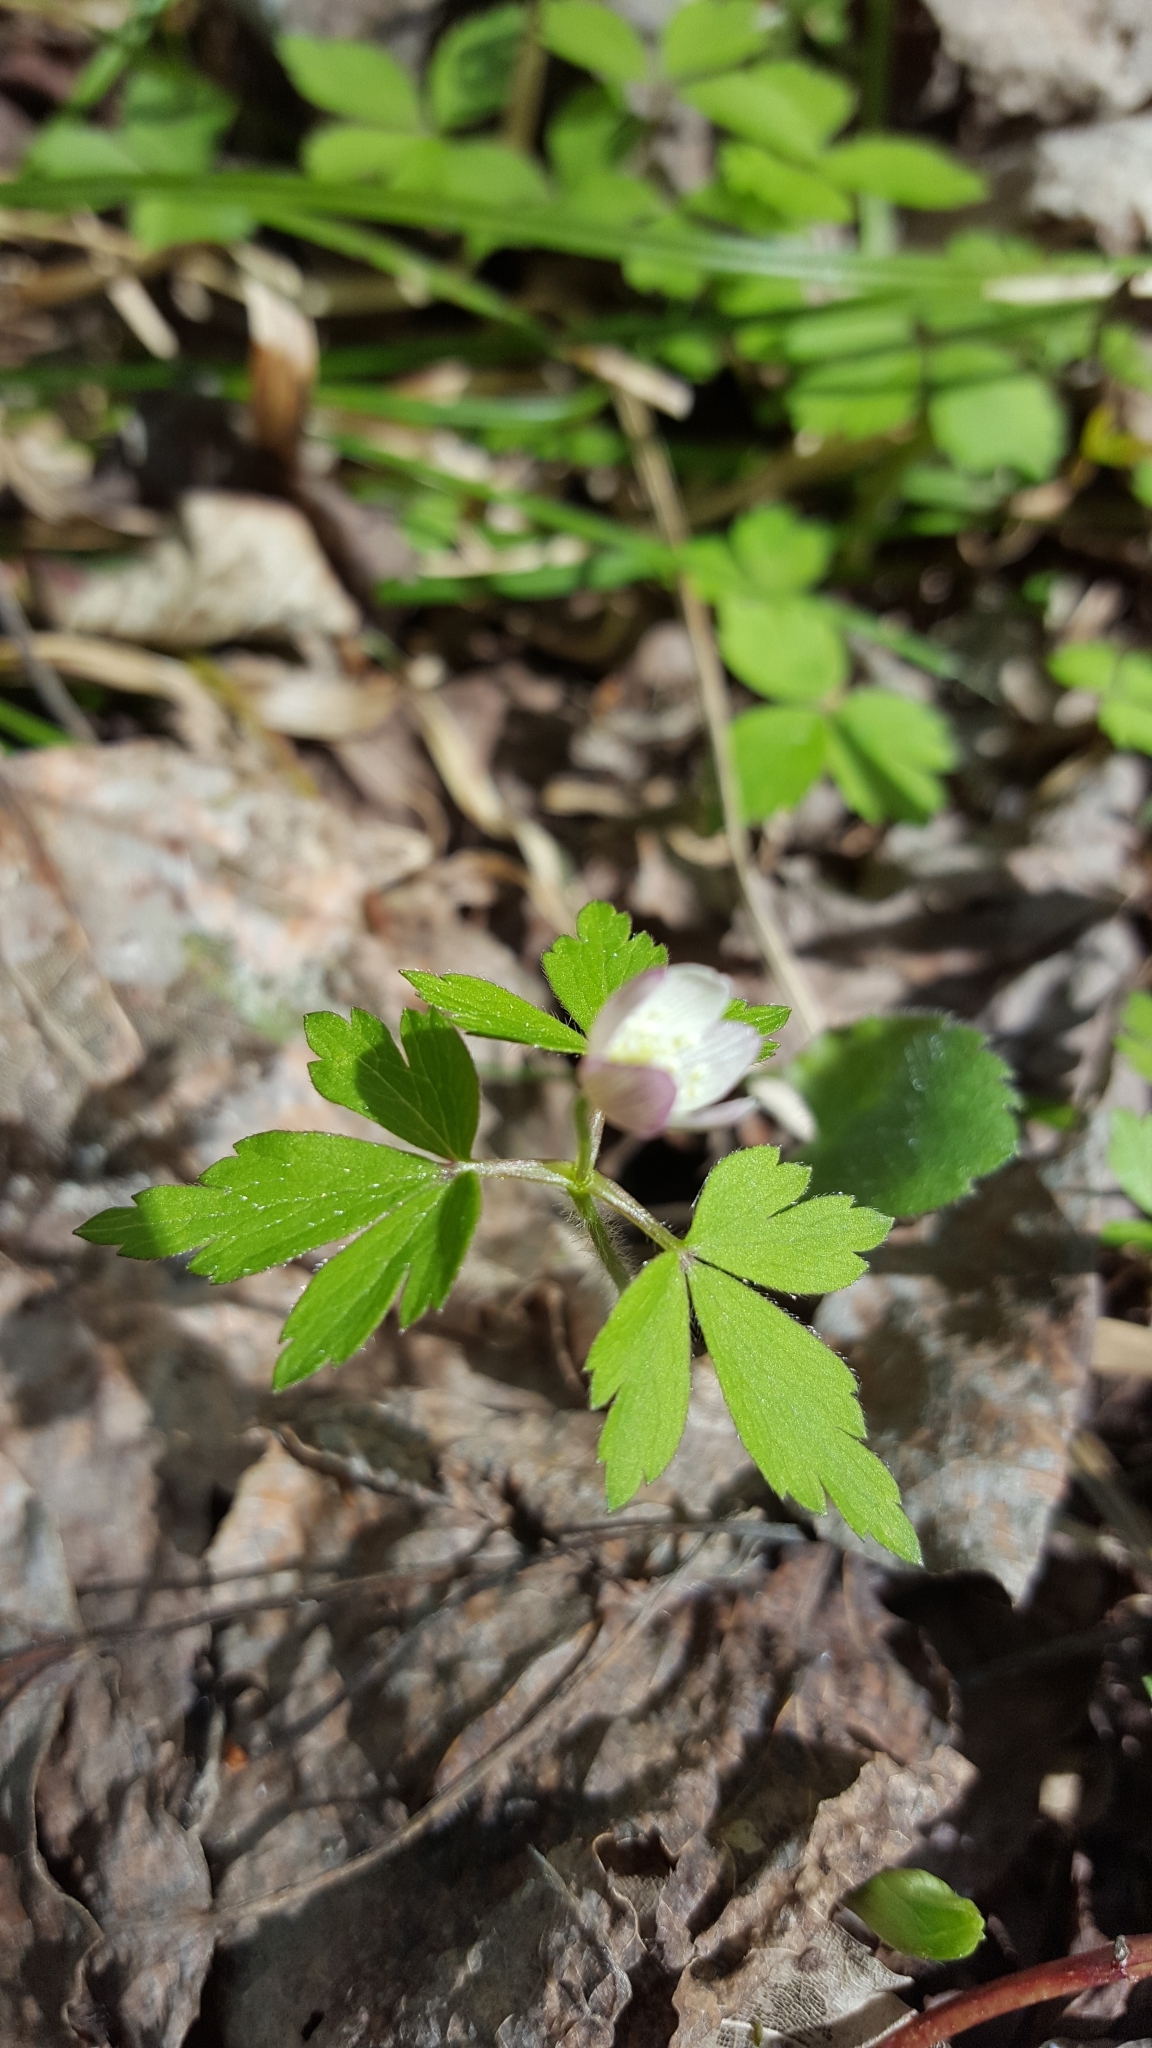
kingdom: Plantae
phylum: Tracheophyta
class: Magnoliopsida
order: Ranunculales
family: Ranunculaceae
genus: Anemone
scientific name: Anemone quinquefolia
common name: Wood anemone
